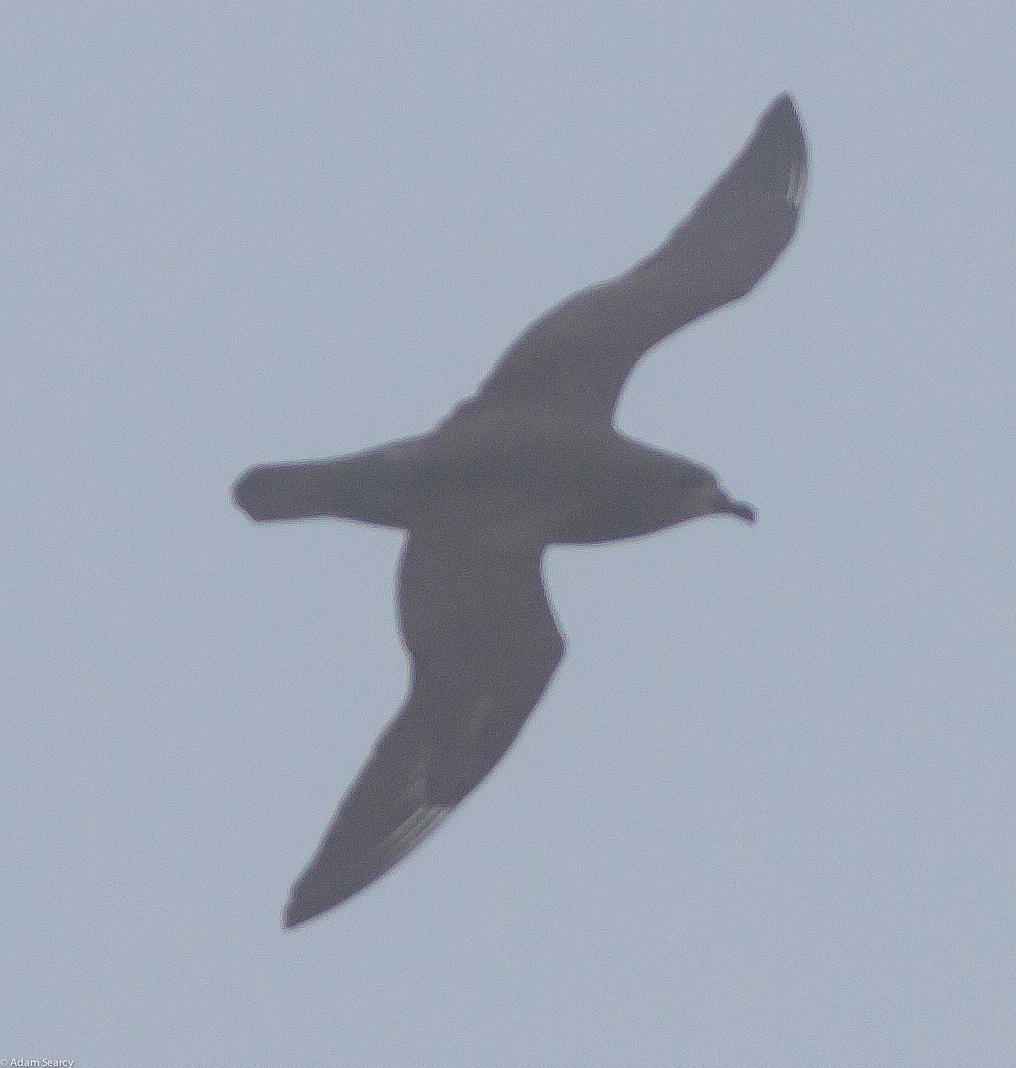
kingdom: Animalia
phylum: Chordata
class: Aves
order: Procellariiformes
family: Procellariidae
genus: Pterodroma
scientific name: Pterodroma neglecta
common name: Kermadec petrel
